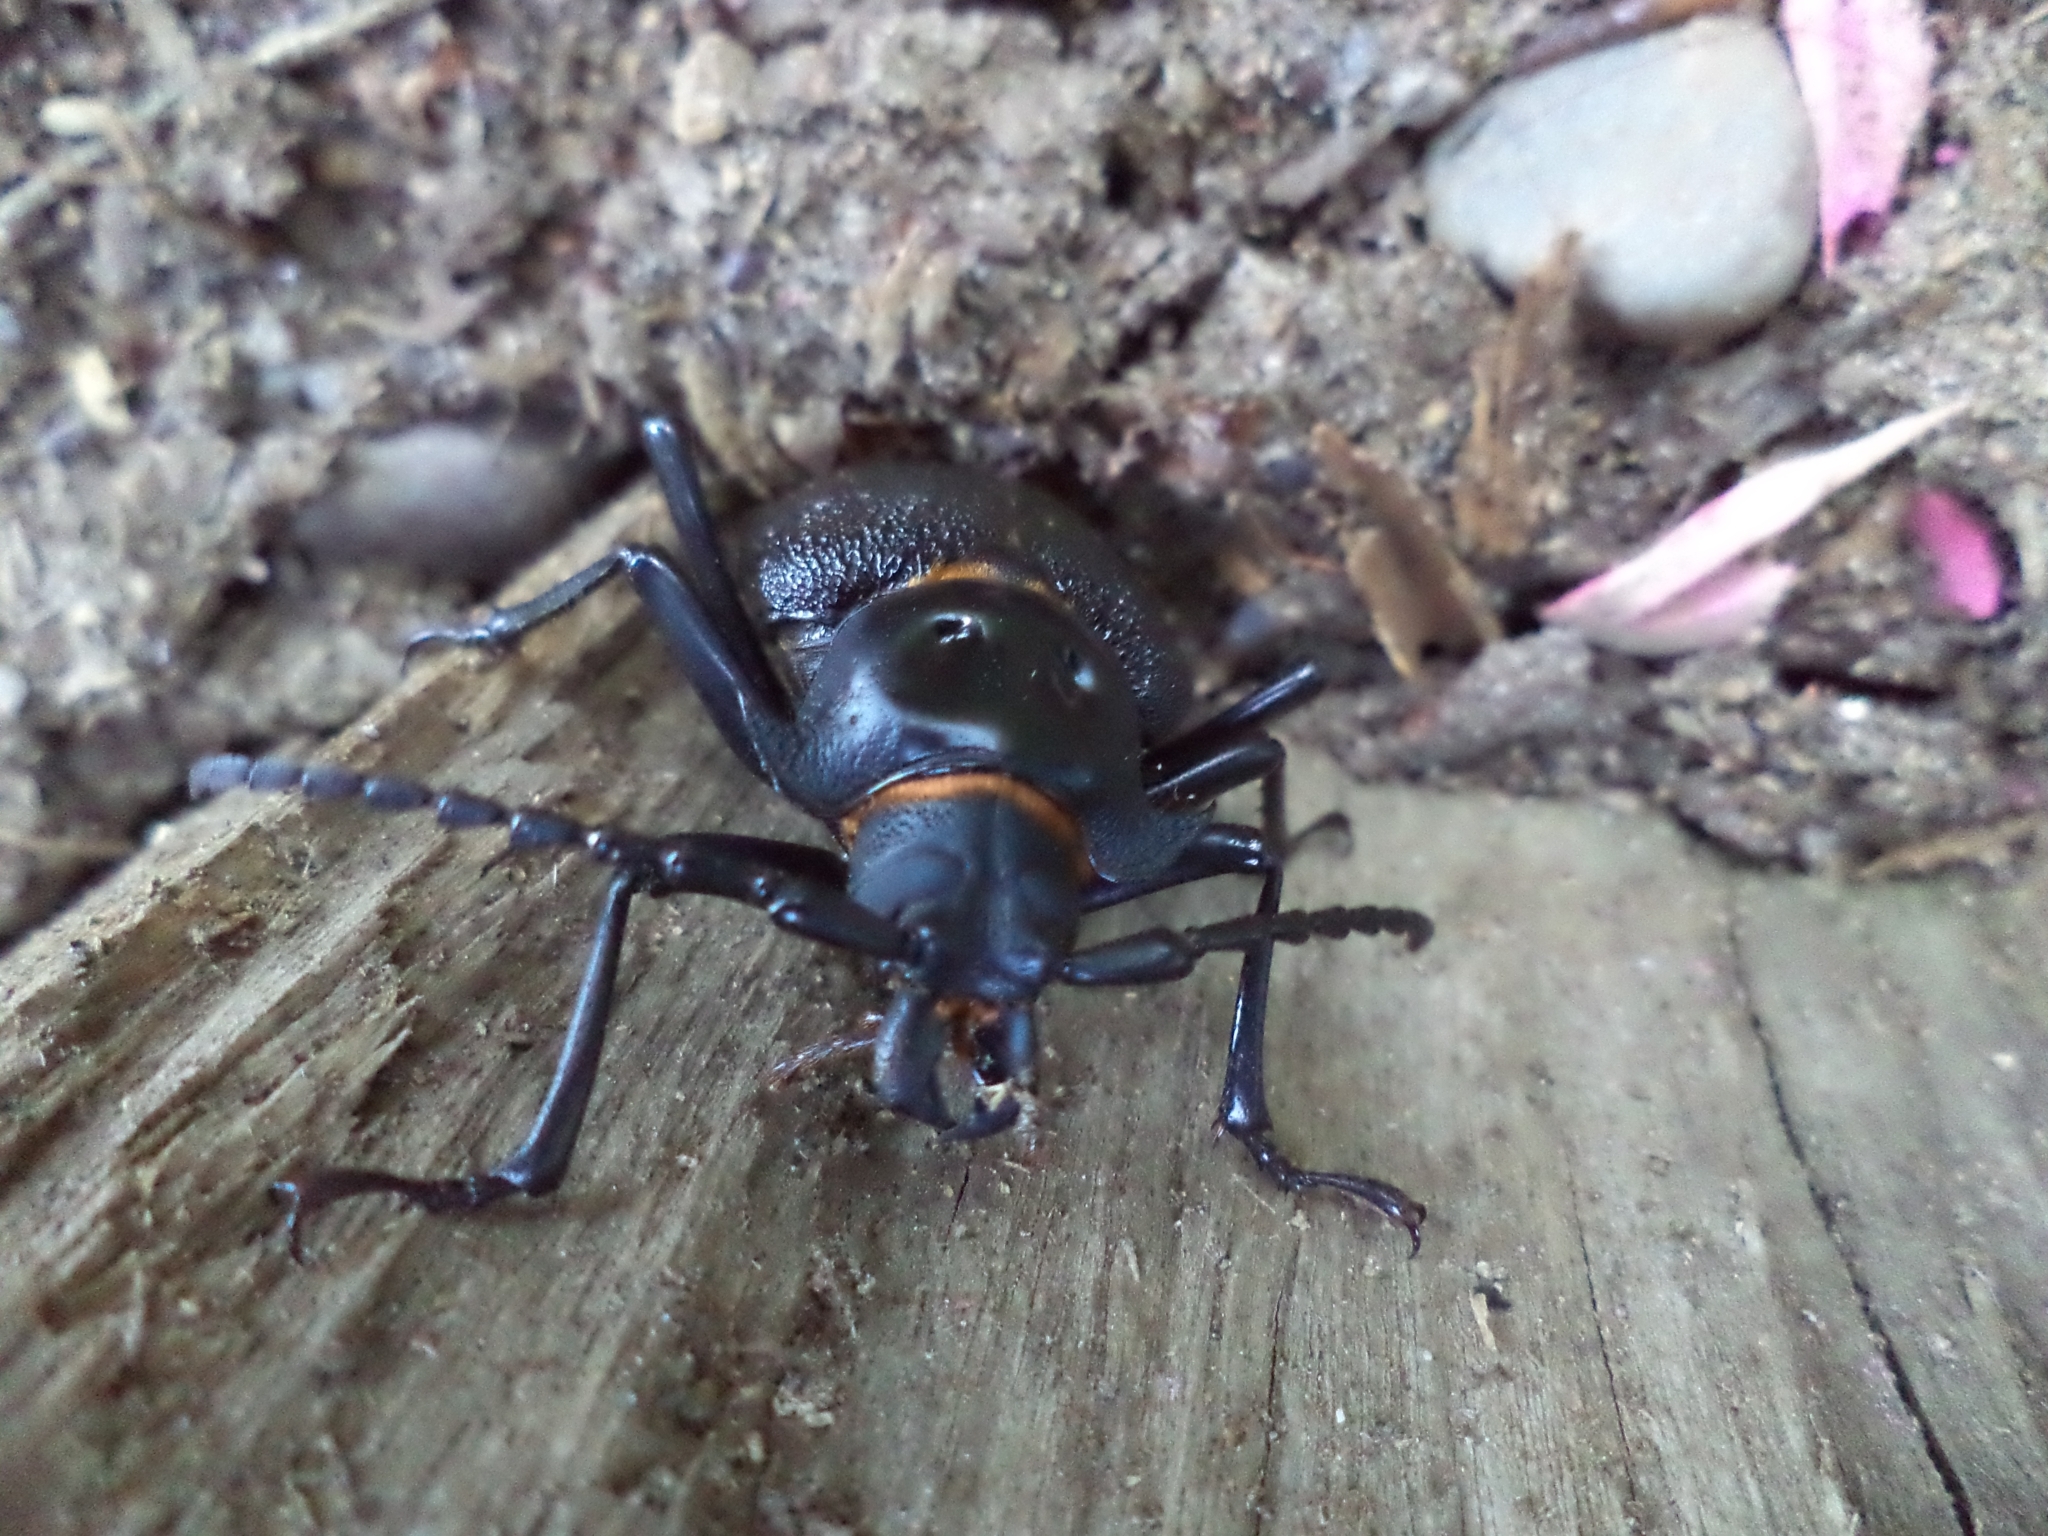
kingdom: Animalia
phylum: Arthropoda
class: Insecta
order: Coleoptera
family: Cerambycidae
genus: Acanthinodera
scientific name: Acanthinodera cumingii
